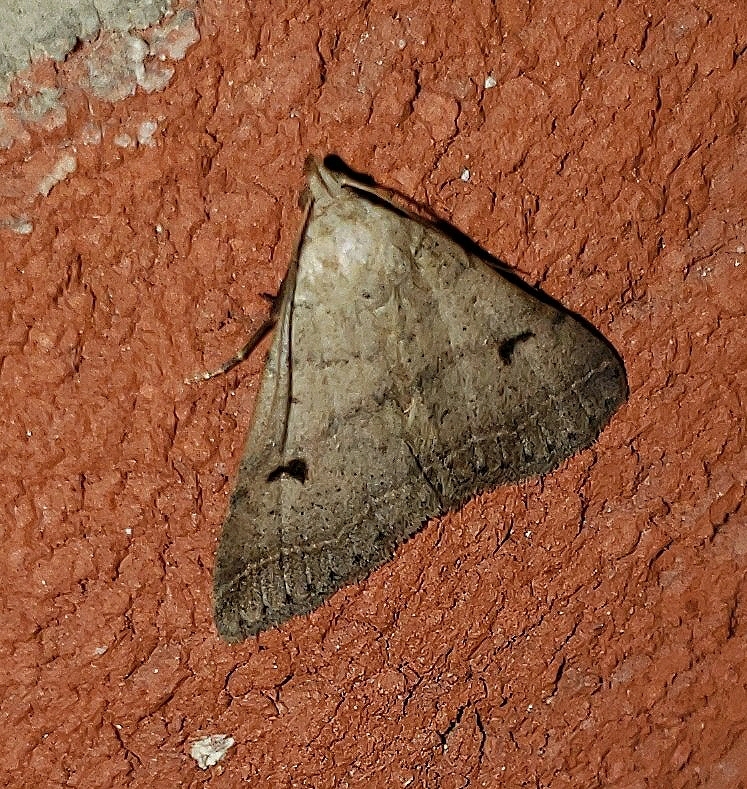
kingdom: Animalia
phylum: Arthropoda
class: Insecta
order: Lepidoptera
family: Erebidae
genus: Bleptina
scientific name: Bleptina caradrinalis
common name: Bent-winged owlet
